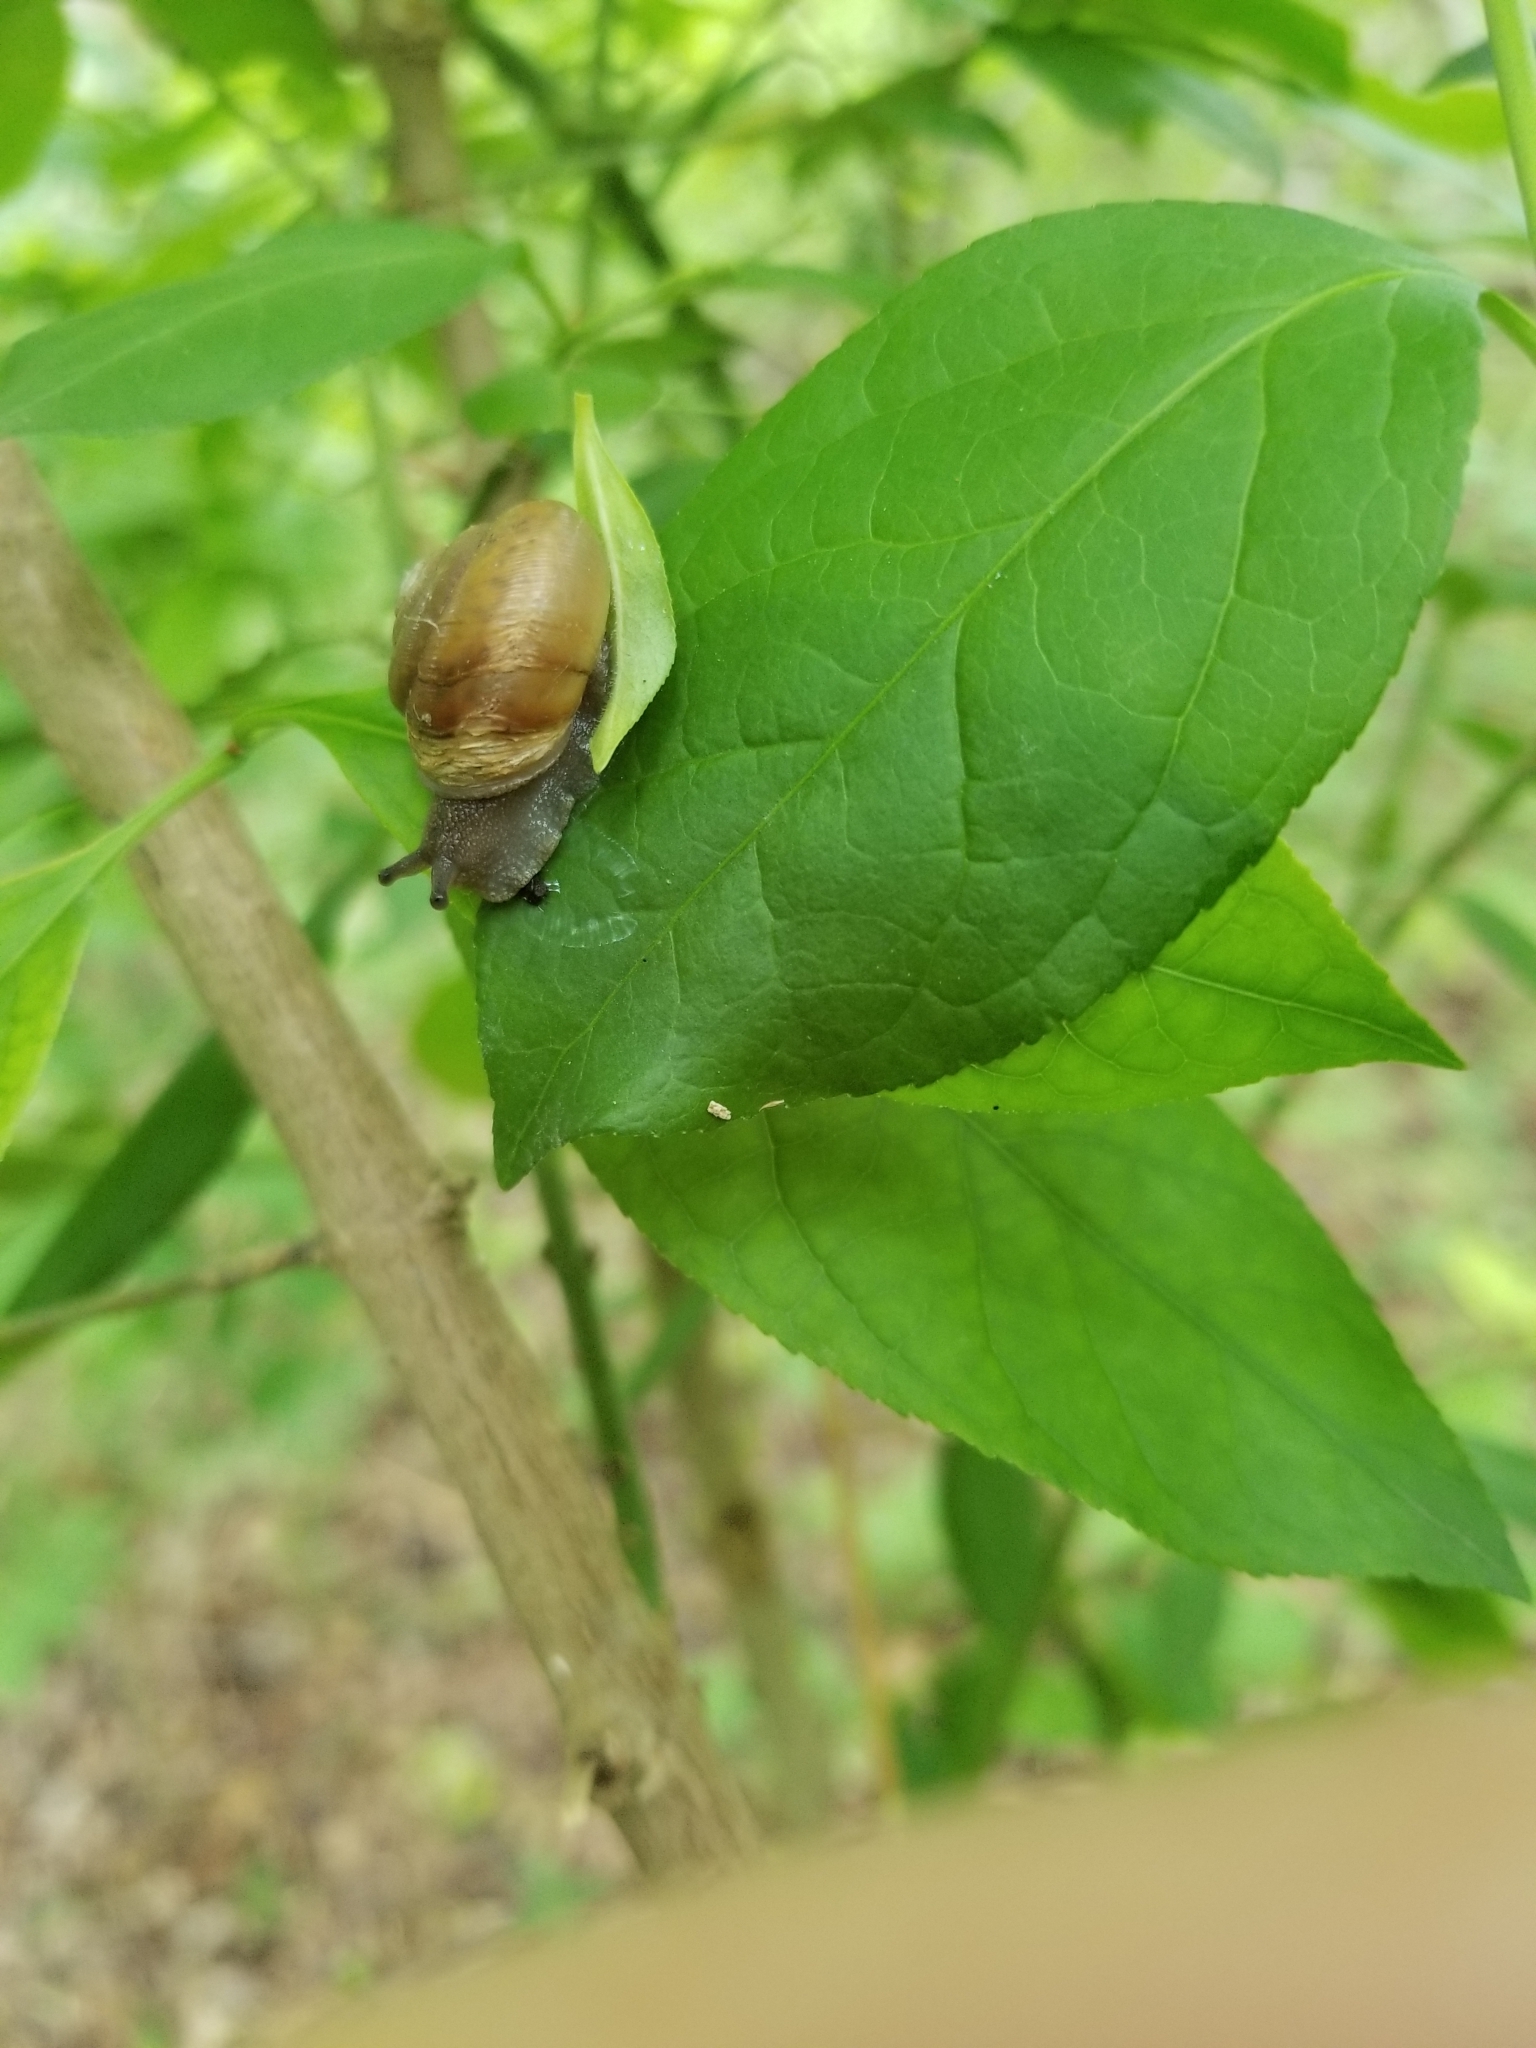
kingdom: Animalia
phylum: Mollusca
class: Gastropoda
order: Stylommatophora
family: Camaenidae
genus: Bradybaena
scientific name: Bradybaena similaris
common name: Asian trampsnail
